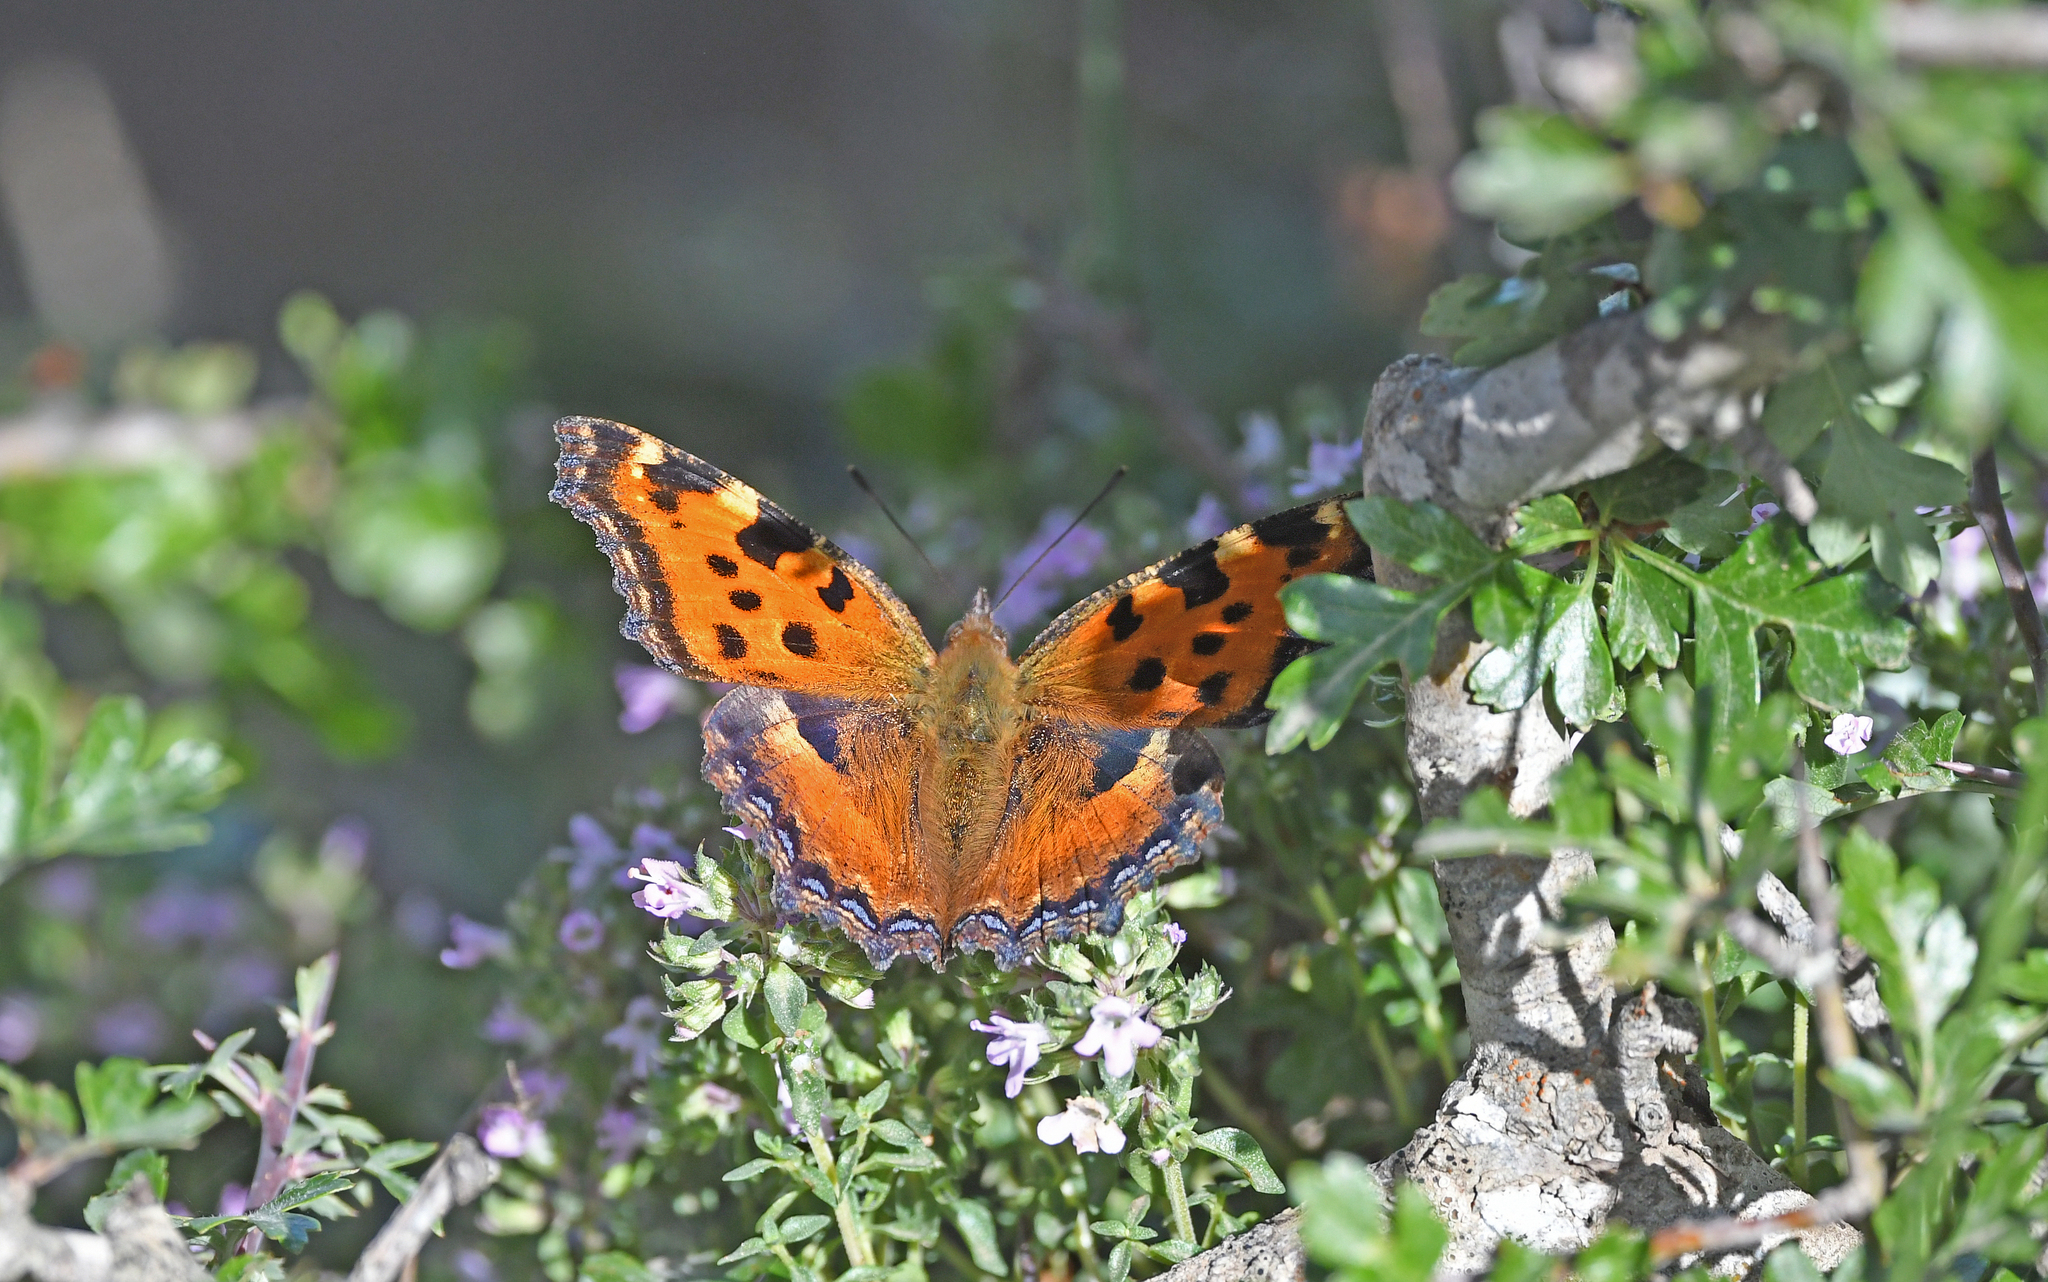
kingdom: Animalia
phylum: Arthropoda
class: Insecta
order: Lepidoptera
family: Nymphalidae
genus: Nymphalis
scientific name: Nymphalis polychloros
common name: Large tortoiseshell
